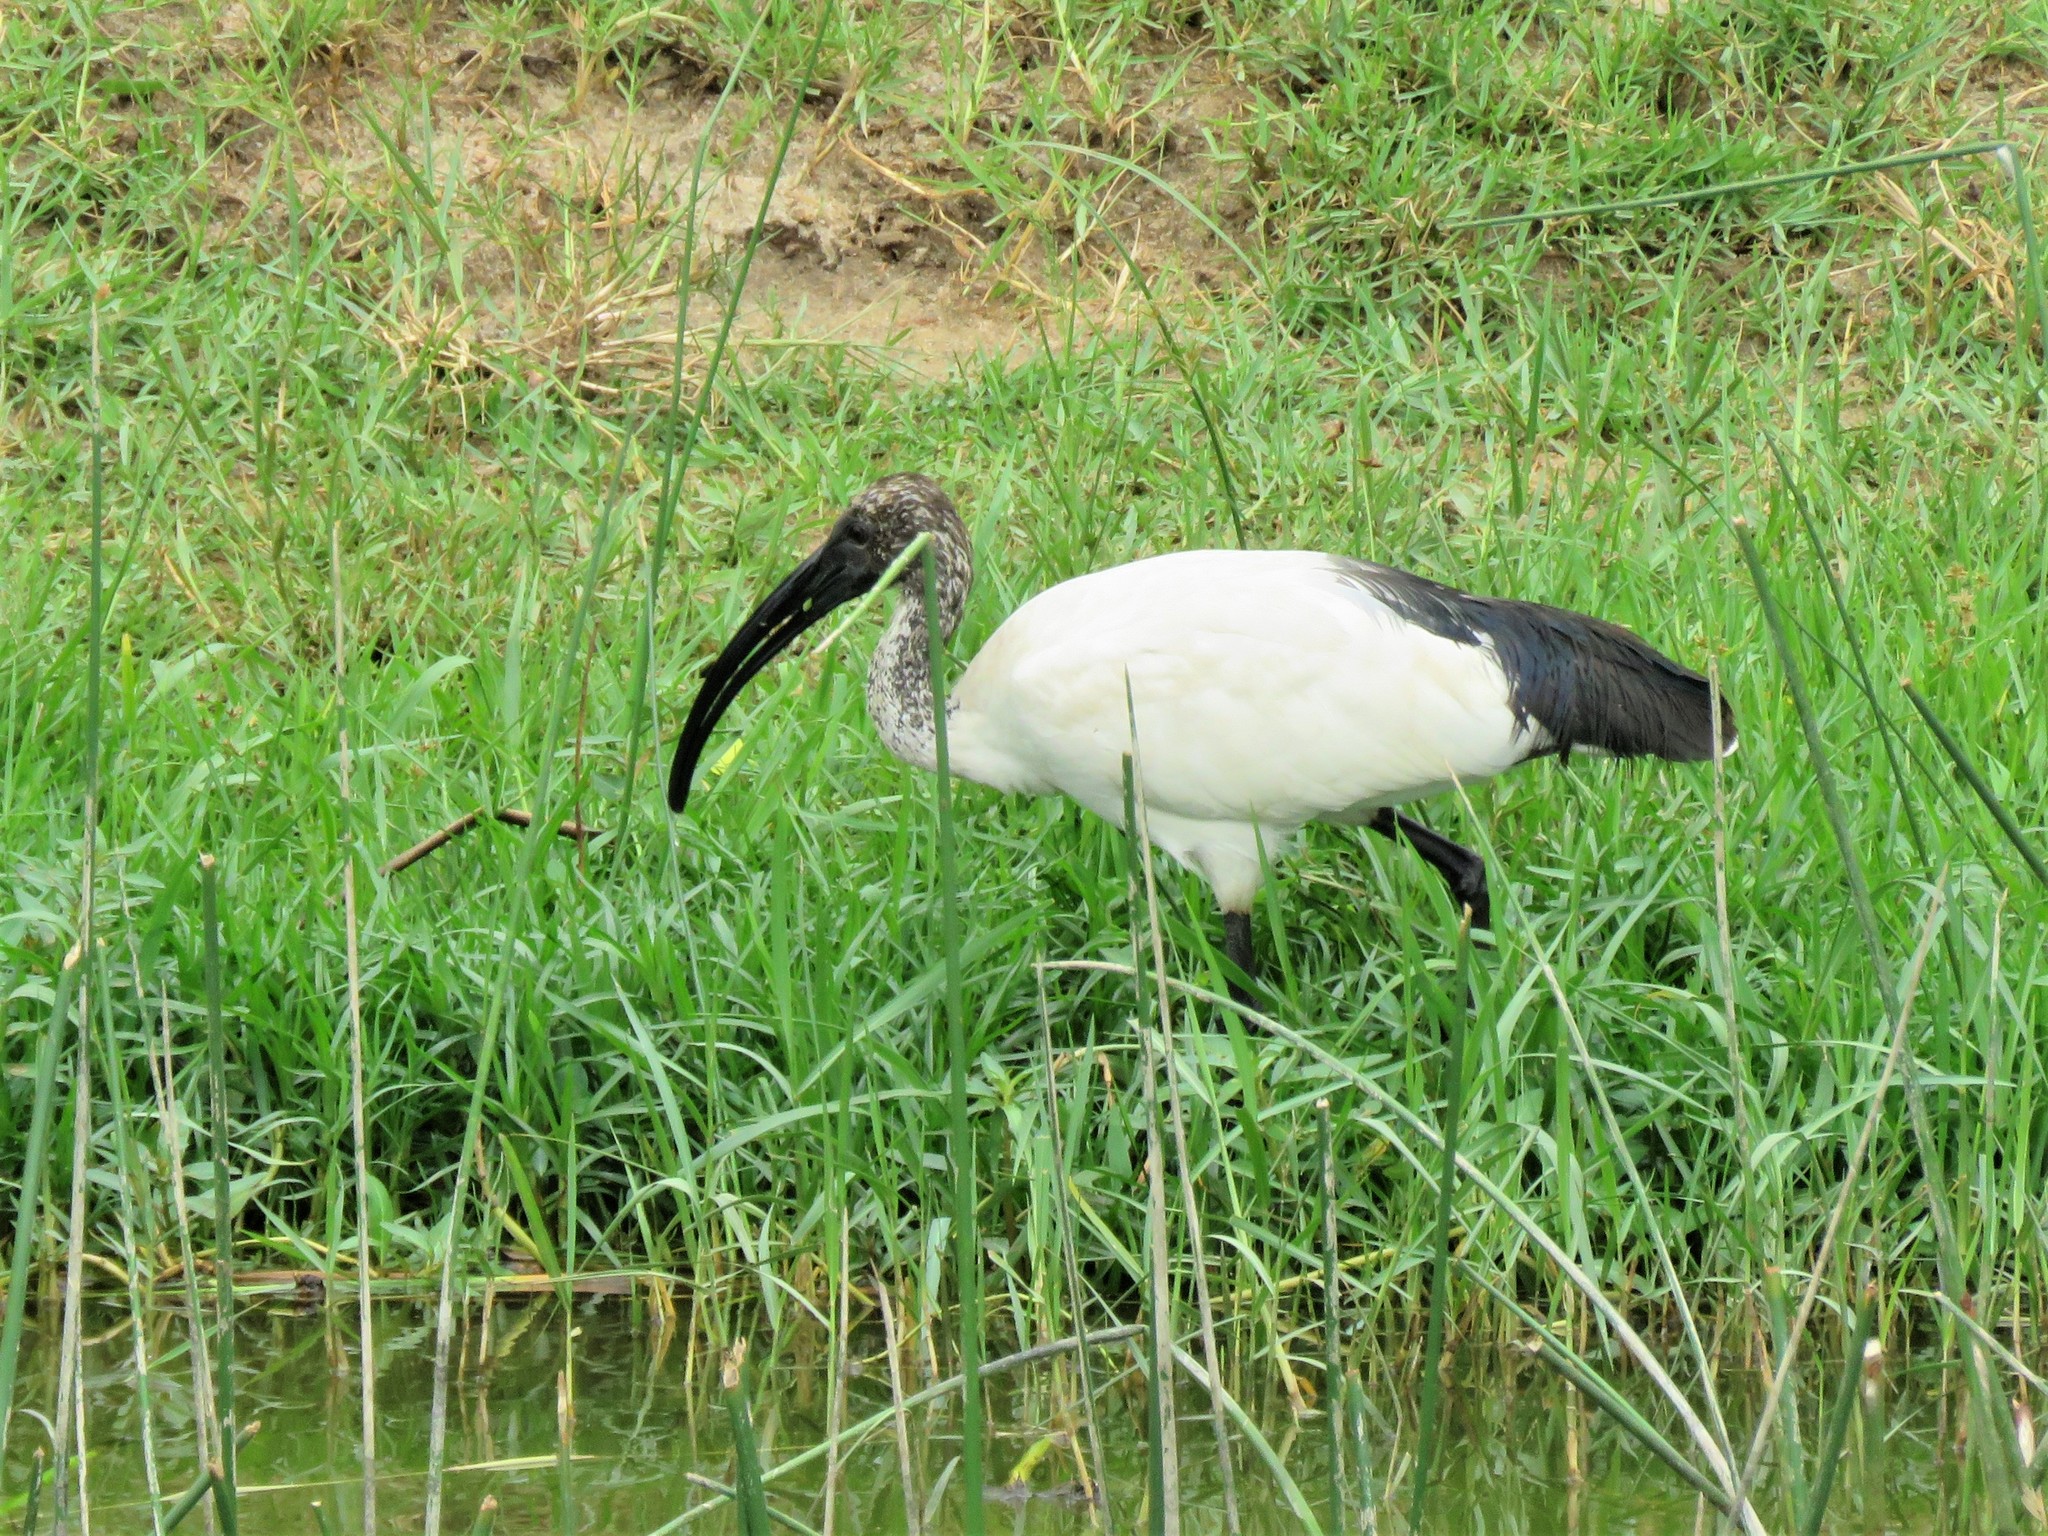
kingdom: Animalia
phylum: Chordata
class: Aves
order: Pelecaniformes
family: Threskiornithidae
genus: Threskiornis
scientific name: Threskiornis aethiopicus
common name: Sacred ibis
